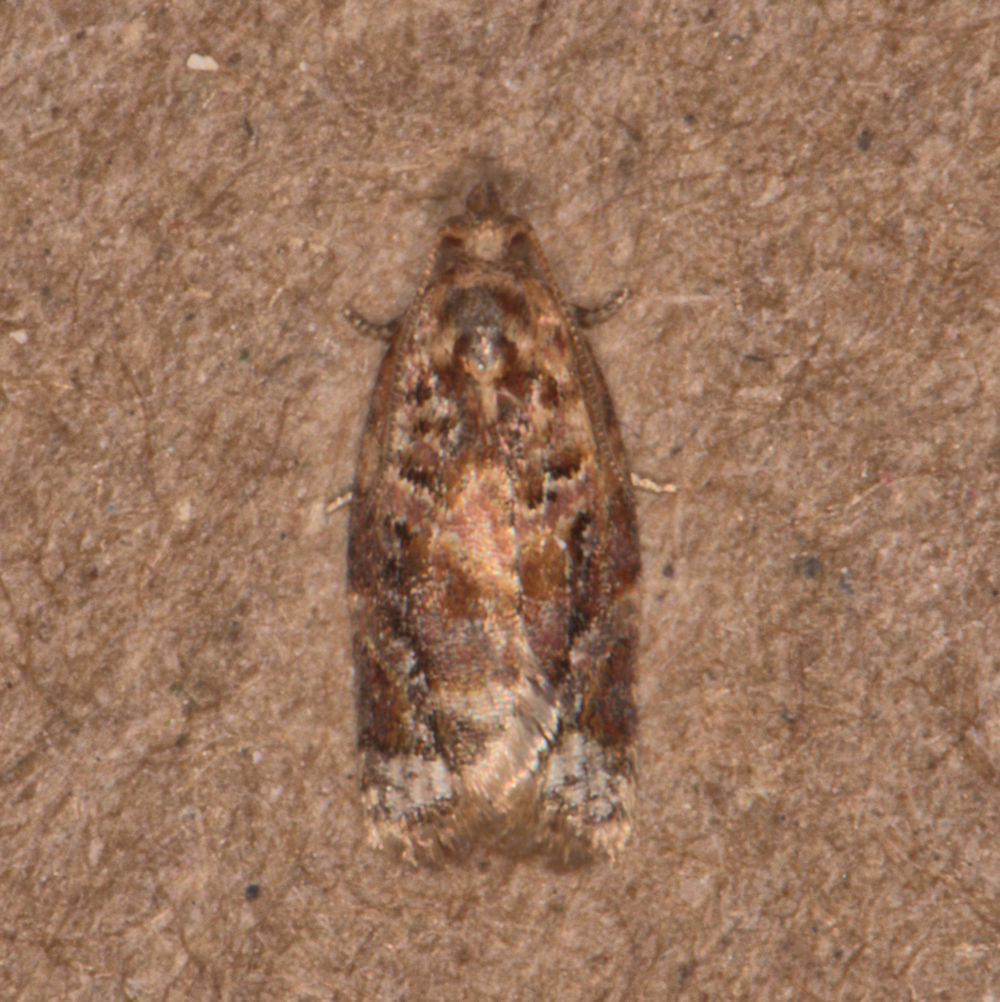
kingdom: Animalia
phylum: Arthropoda
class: Insecta
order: Lepidoptera
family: Tortricidae
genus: Argyrotaenia
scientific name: Argyrotaenia velutinana
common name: Red-banded leafroller moth
